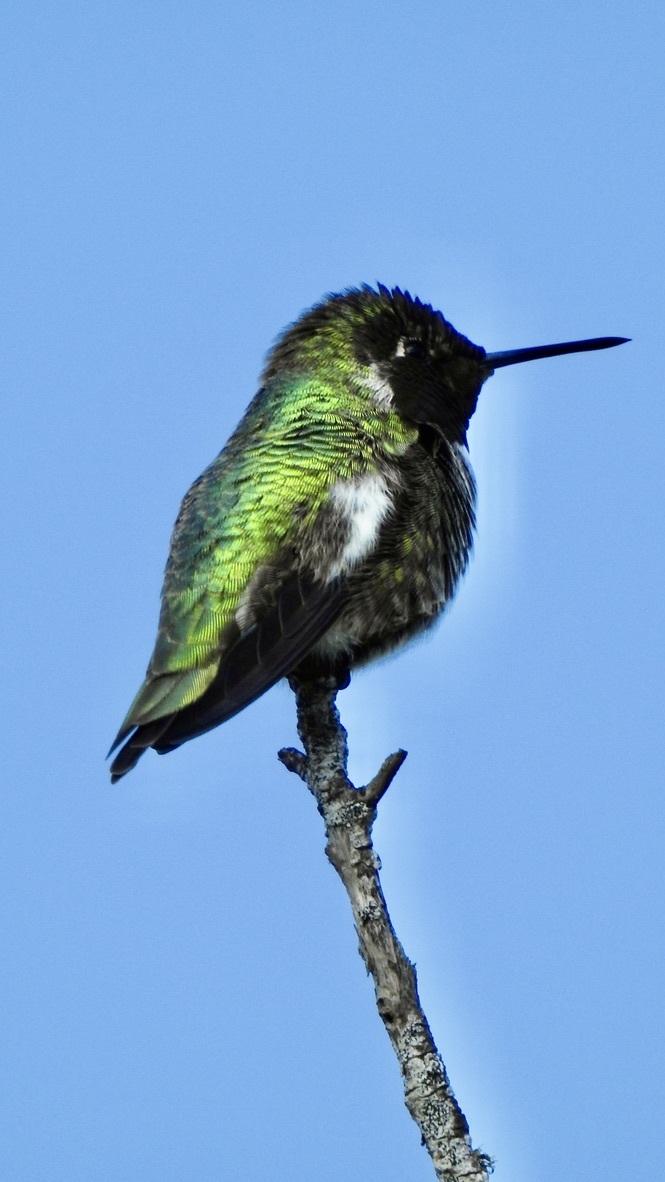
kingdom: Animalia
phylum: Chordata
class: Aves
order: Apodiformes
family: Trochilidae
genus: Calypte
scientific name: Calypte anna
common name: Anna's hummingbird
